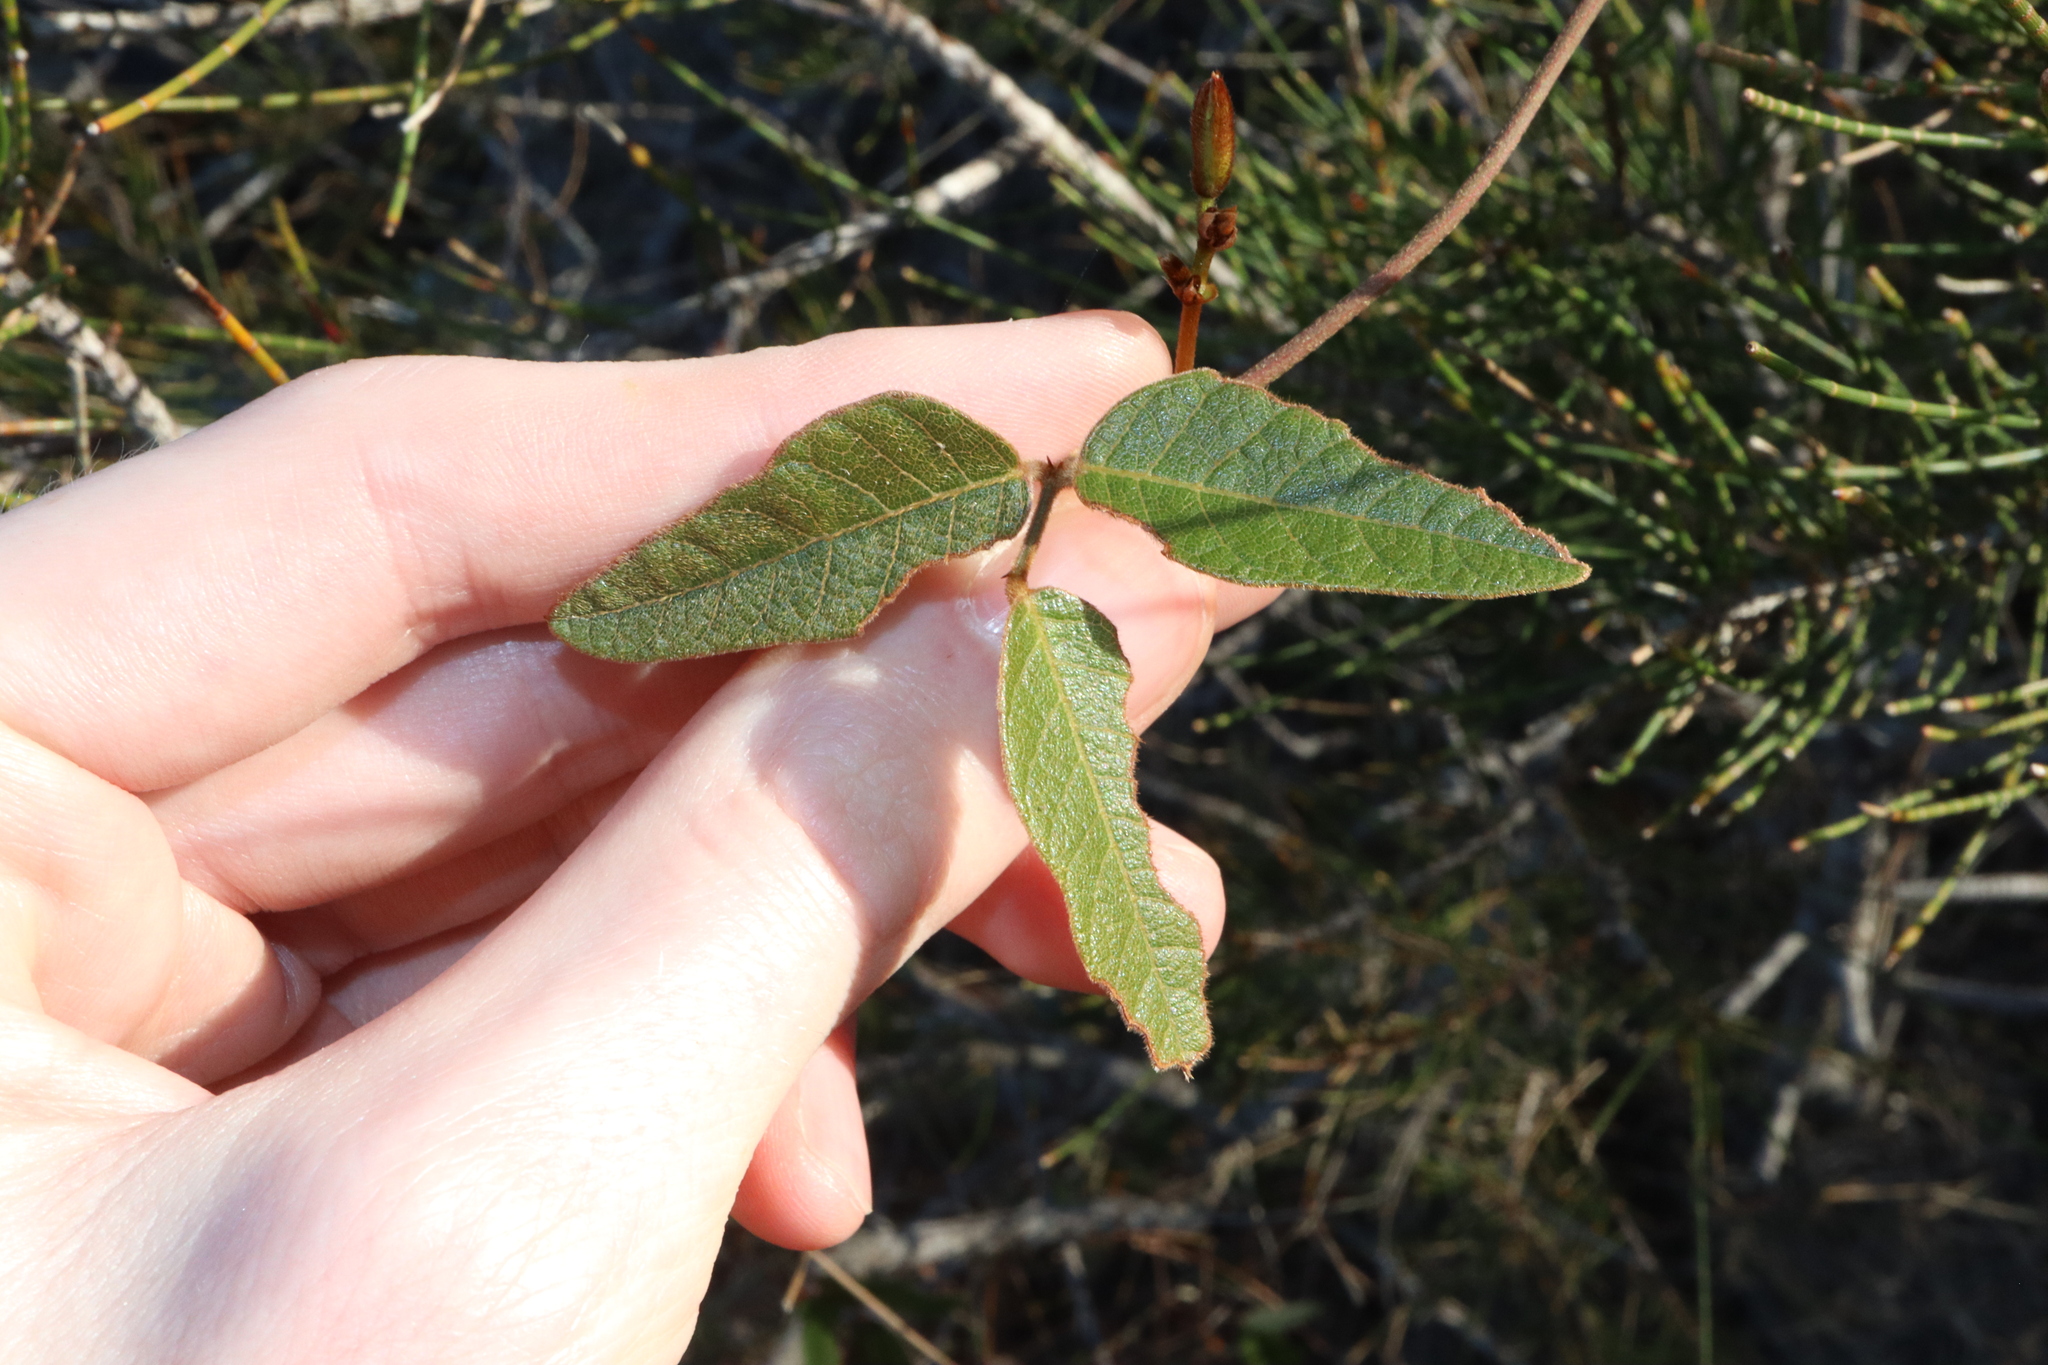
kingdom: Plantae
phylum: Tracheophyta
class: Magnoliopsida
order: Fabales
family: Fabaceae
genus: Kennedia
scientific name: Kennedia rubicunda
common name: Red kennedy-pea
